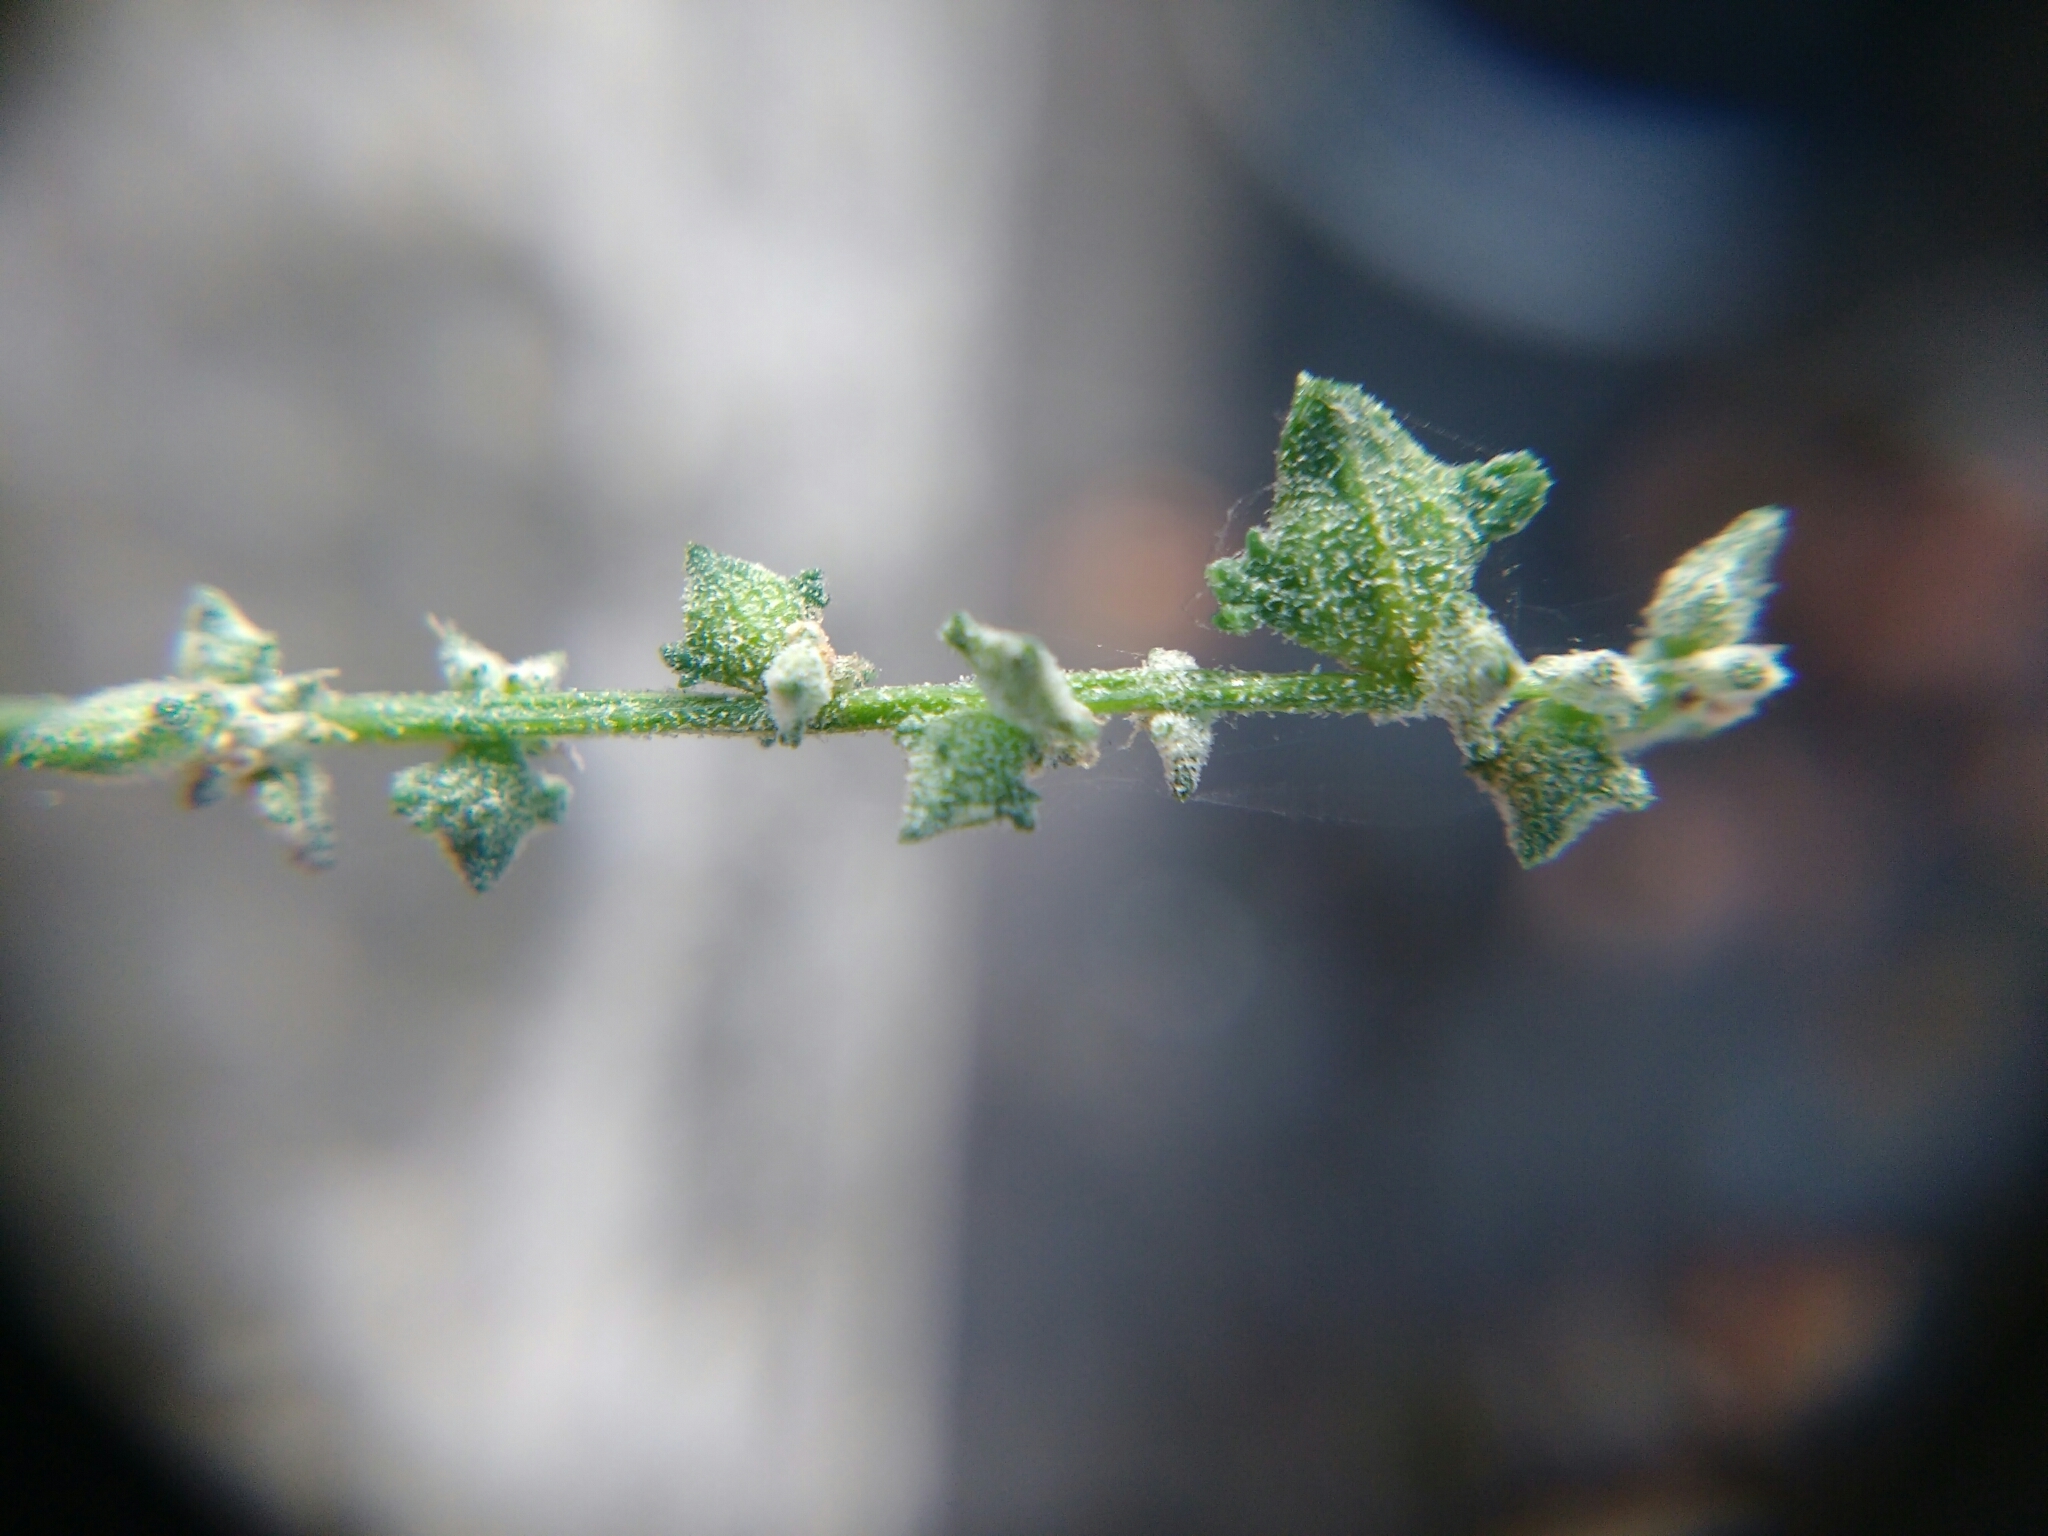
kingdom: Plantae
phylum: Tracheophyta
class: Magnoliopsida
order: Caryophyllales
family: Amaranthaceae
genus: Atriplex
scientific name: Atriplex patula
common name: Common orache
